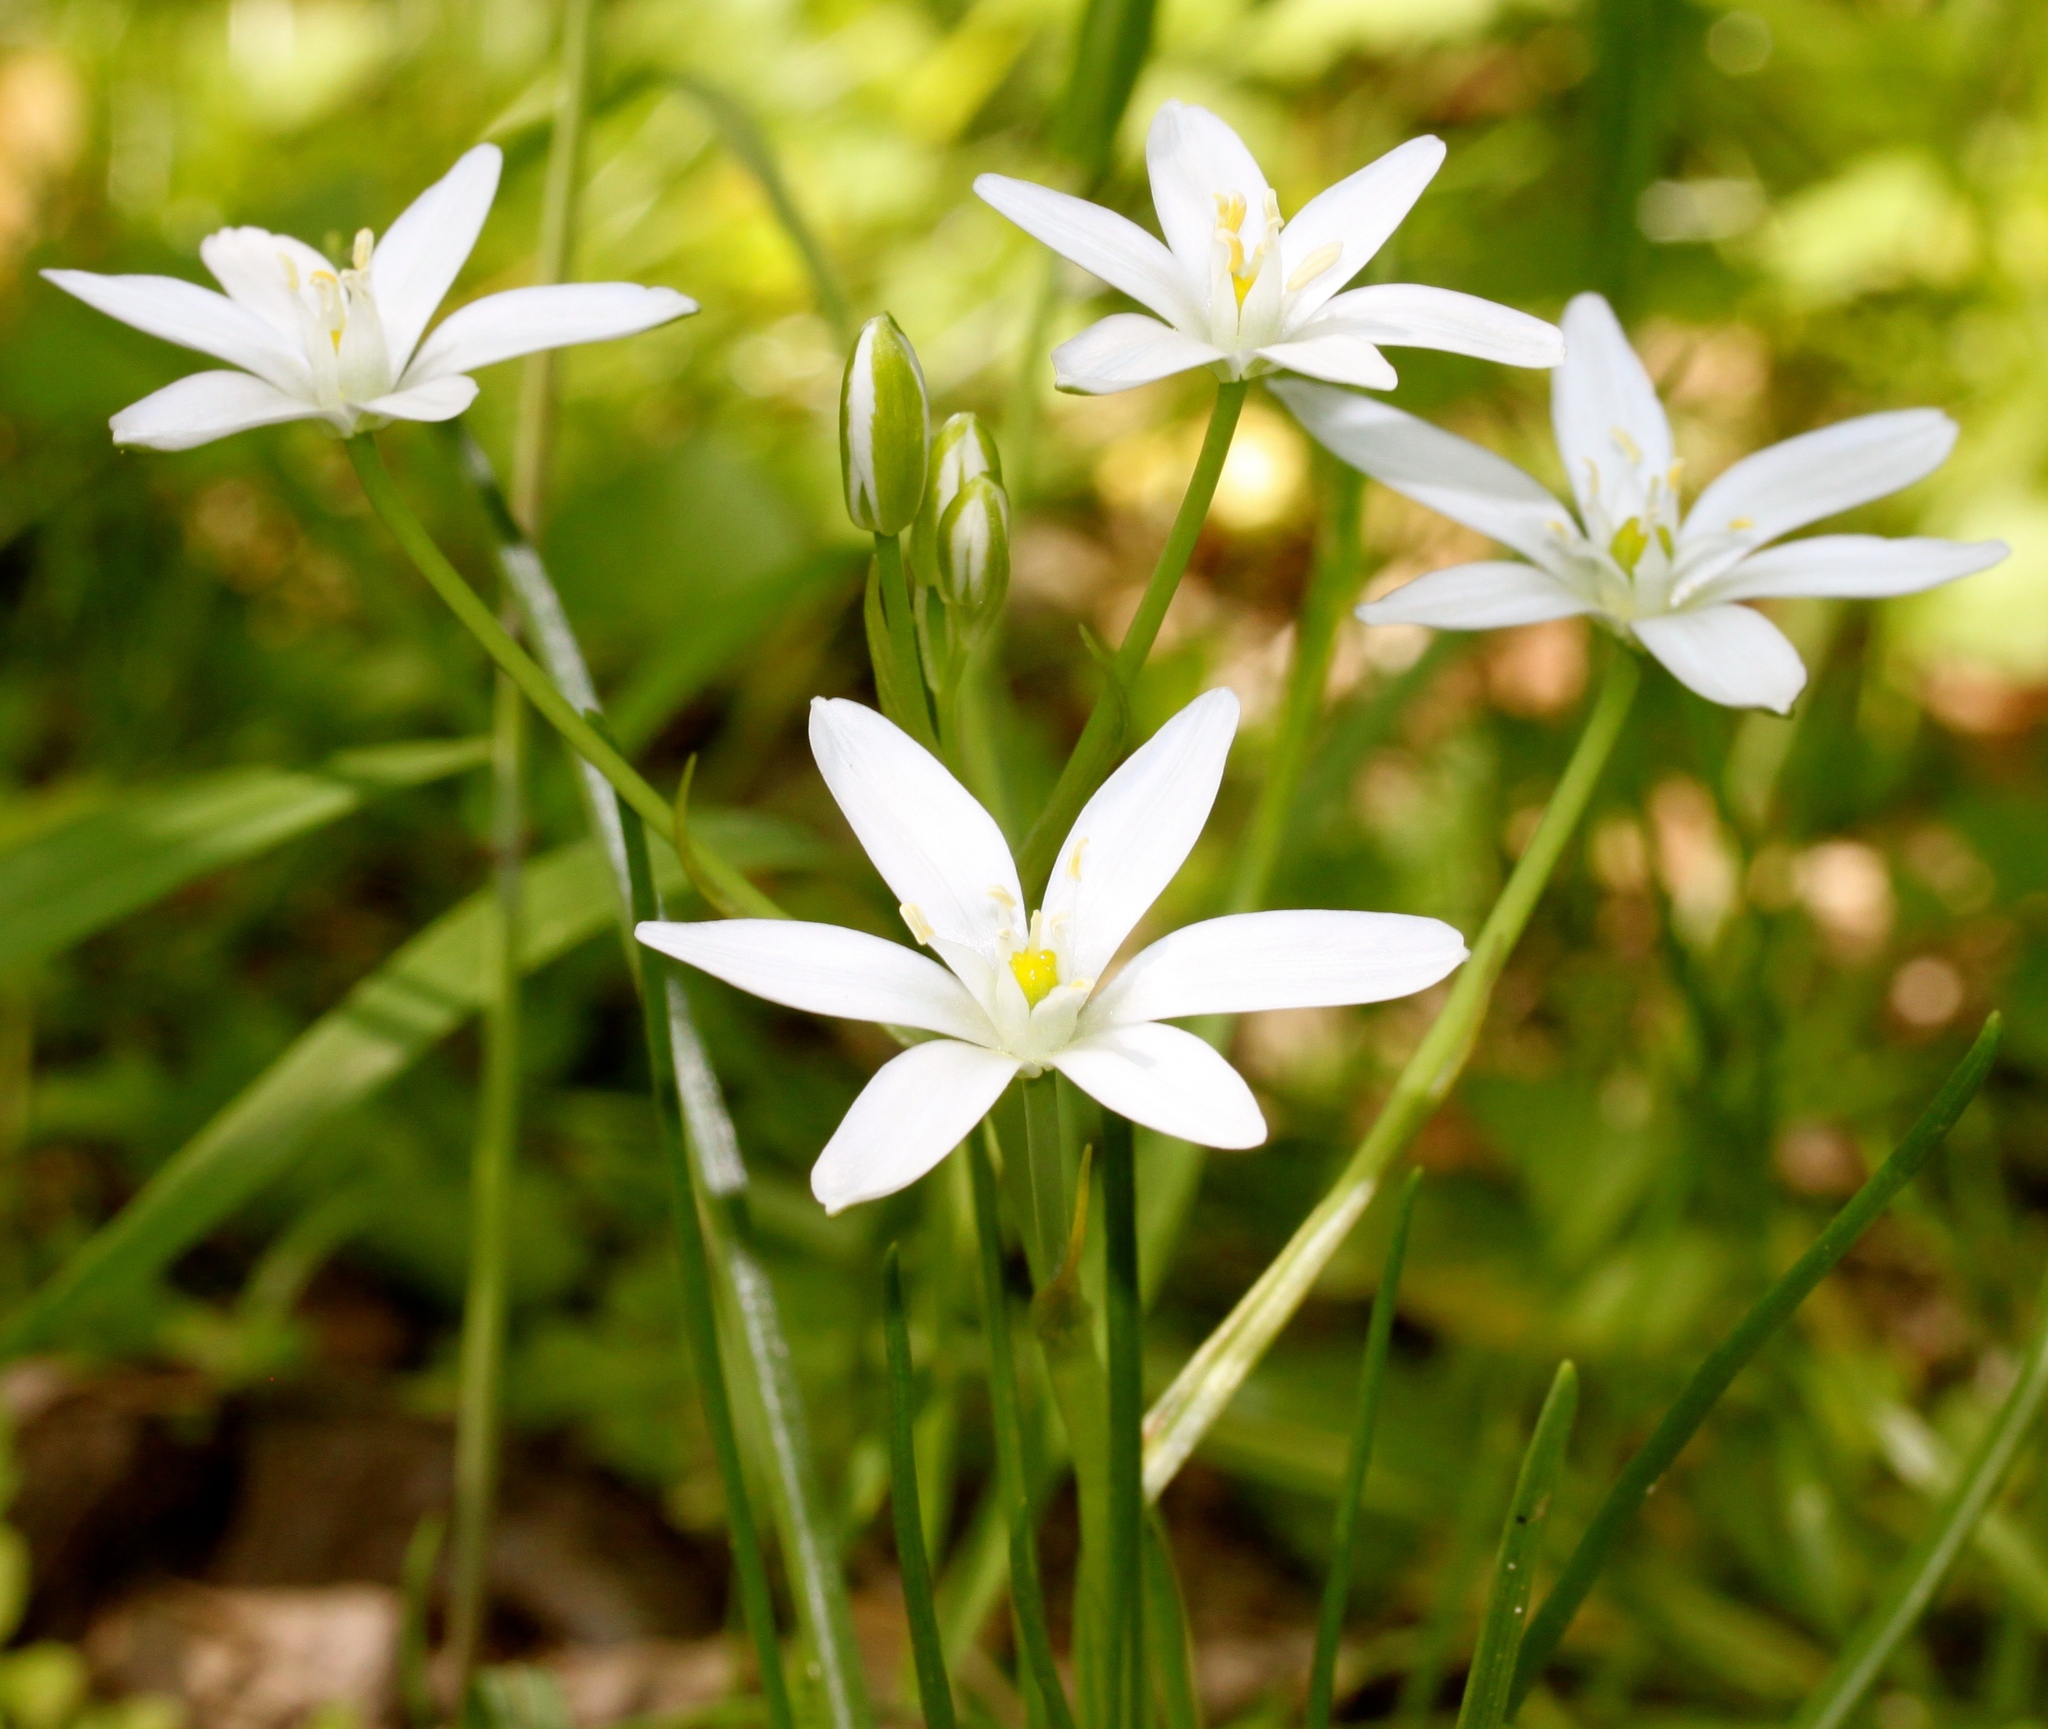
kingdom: Plantae
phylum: Tracheophyta
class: Liliopsida
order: Asparagales
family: Asparagaceae
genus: Ornithogalum
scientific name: Ornithogalum umbellatum
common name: Garden star-of-bethlehem
